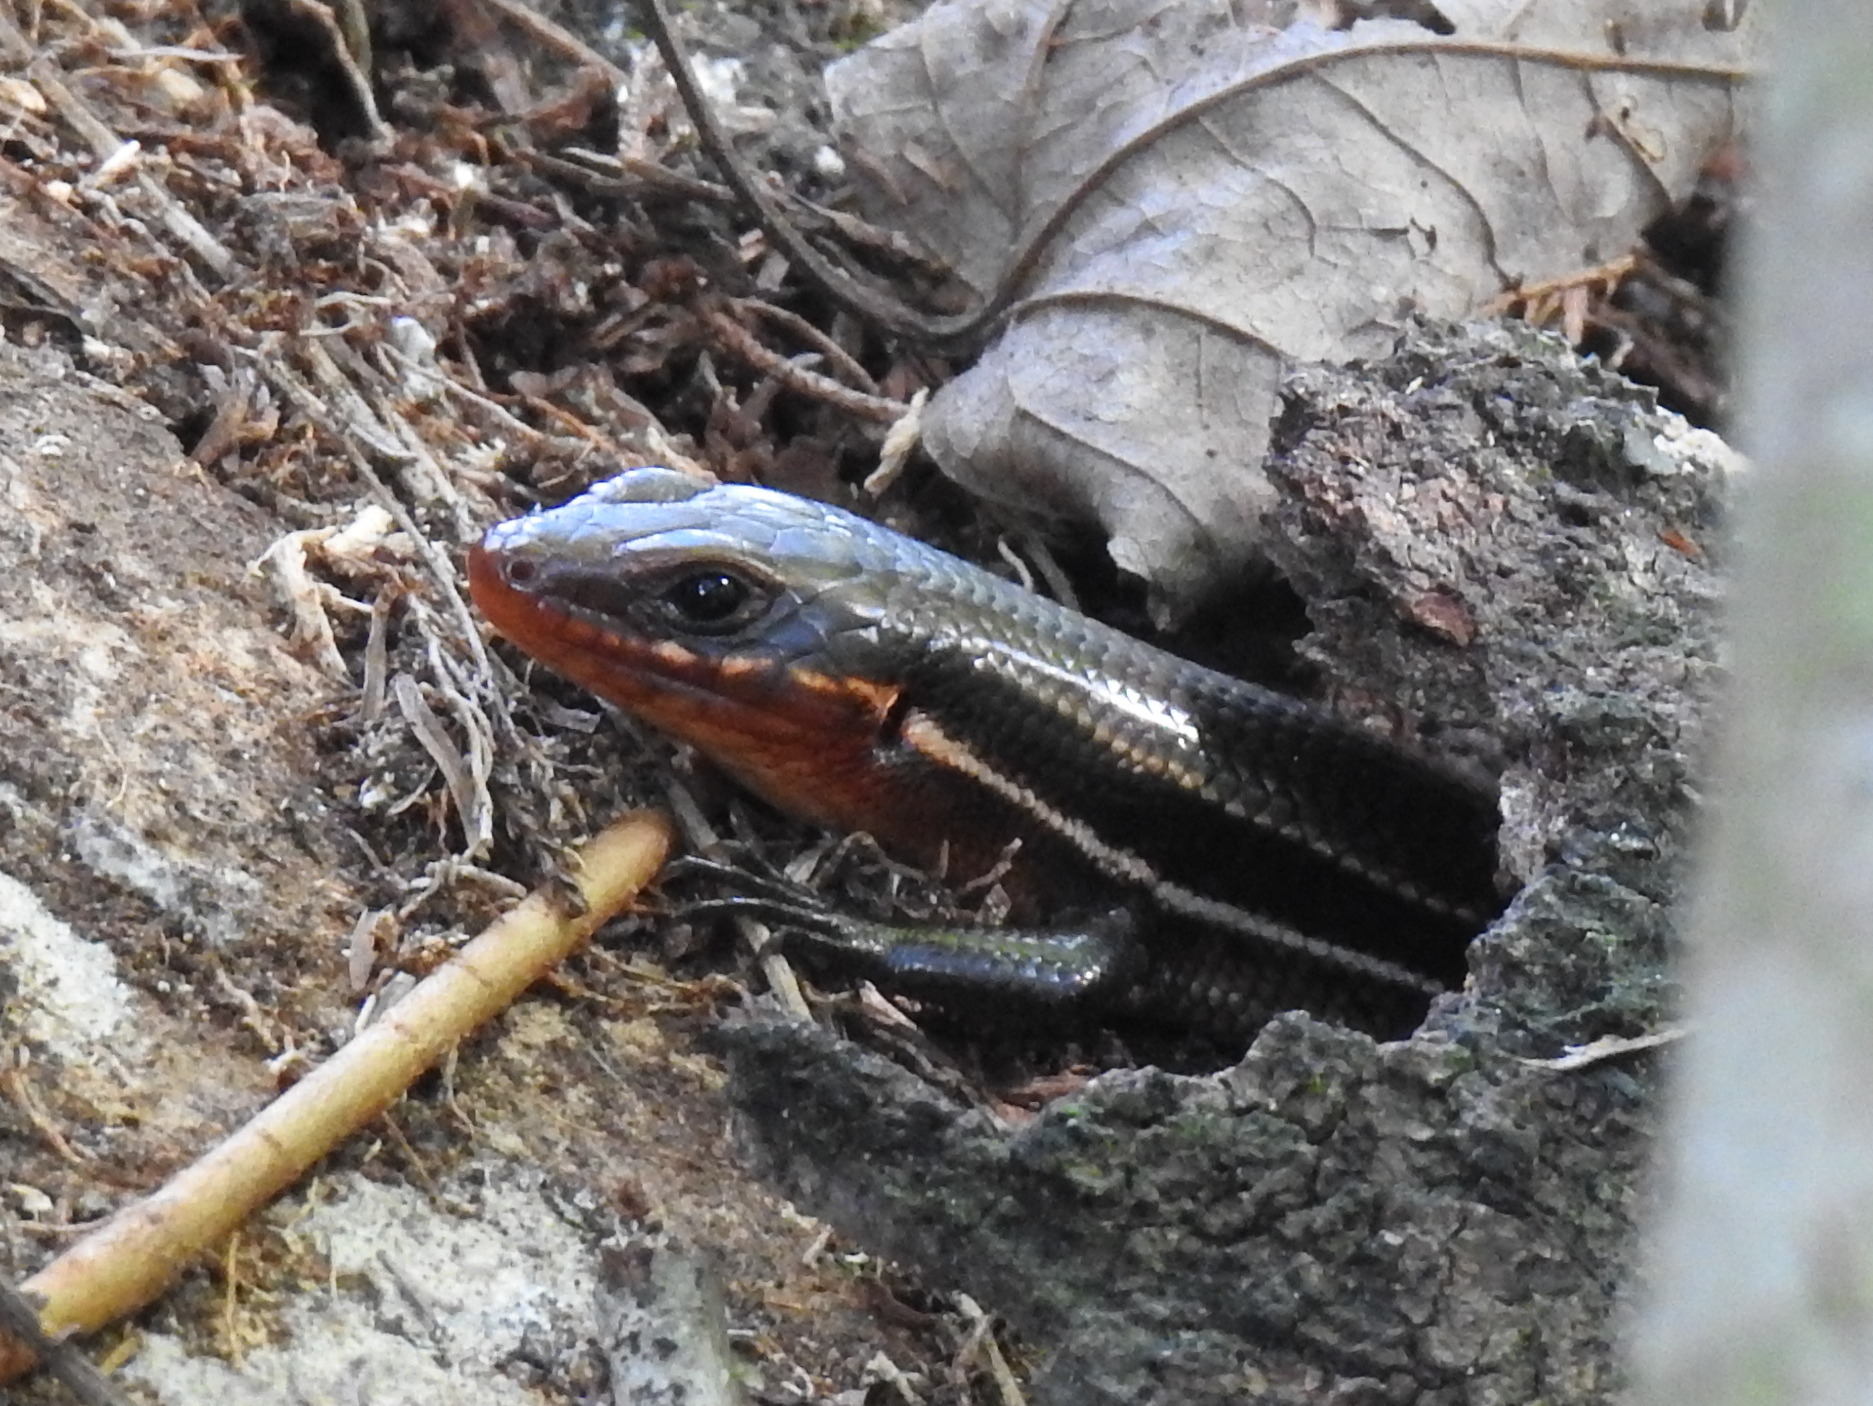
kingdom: Animalia
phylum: Chordata
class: Squamata
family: Scincidae
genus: Plestiodon
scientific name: Plestiodon inexpectatus
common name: Southeastern five-lined skink
